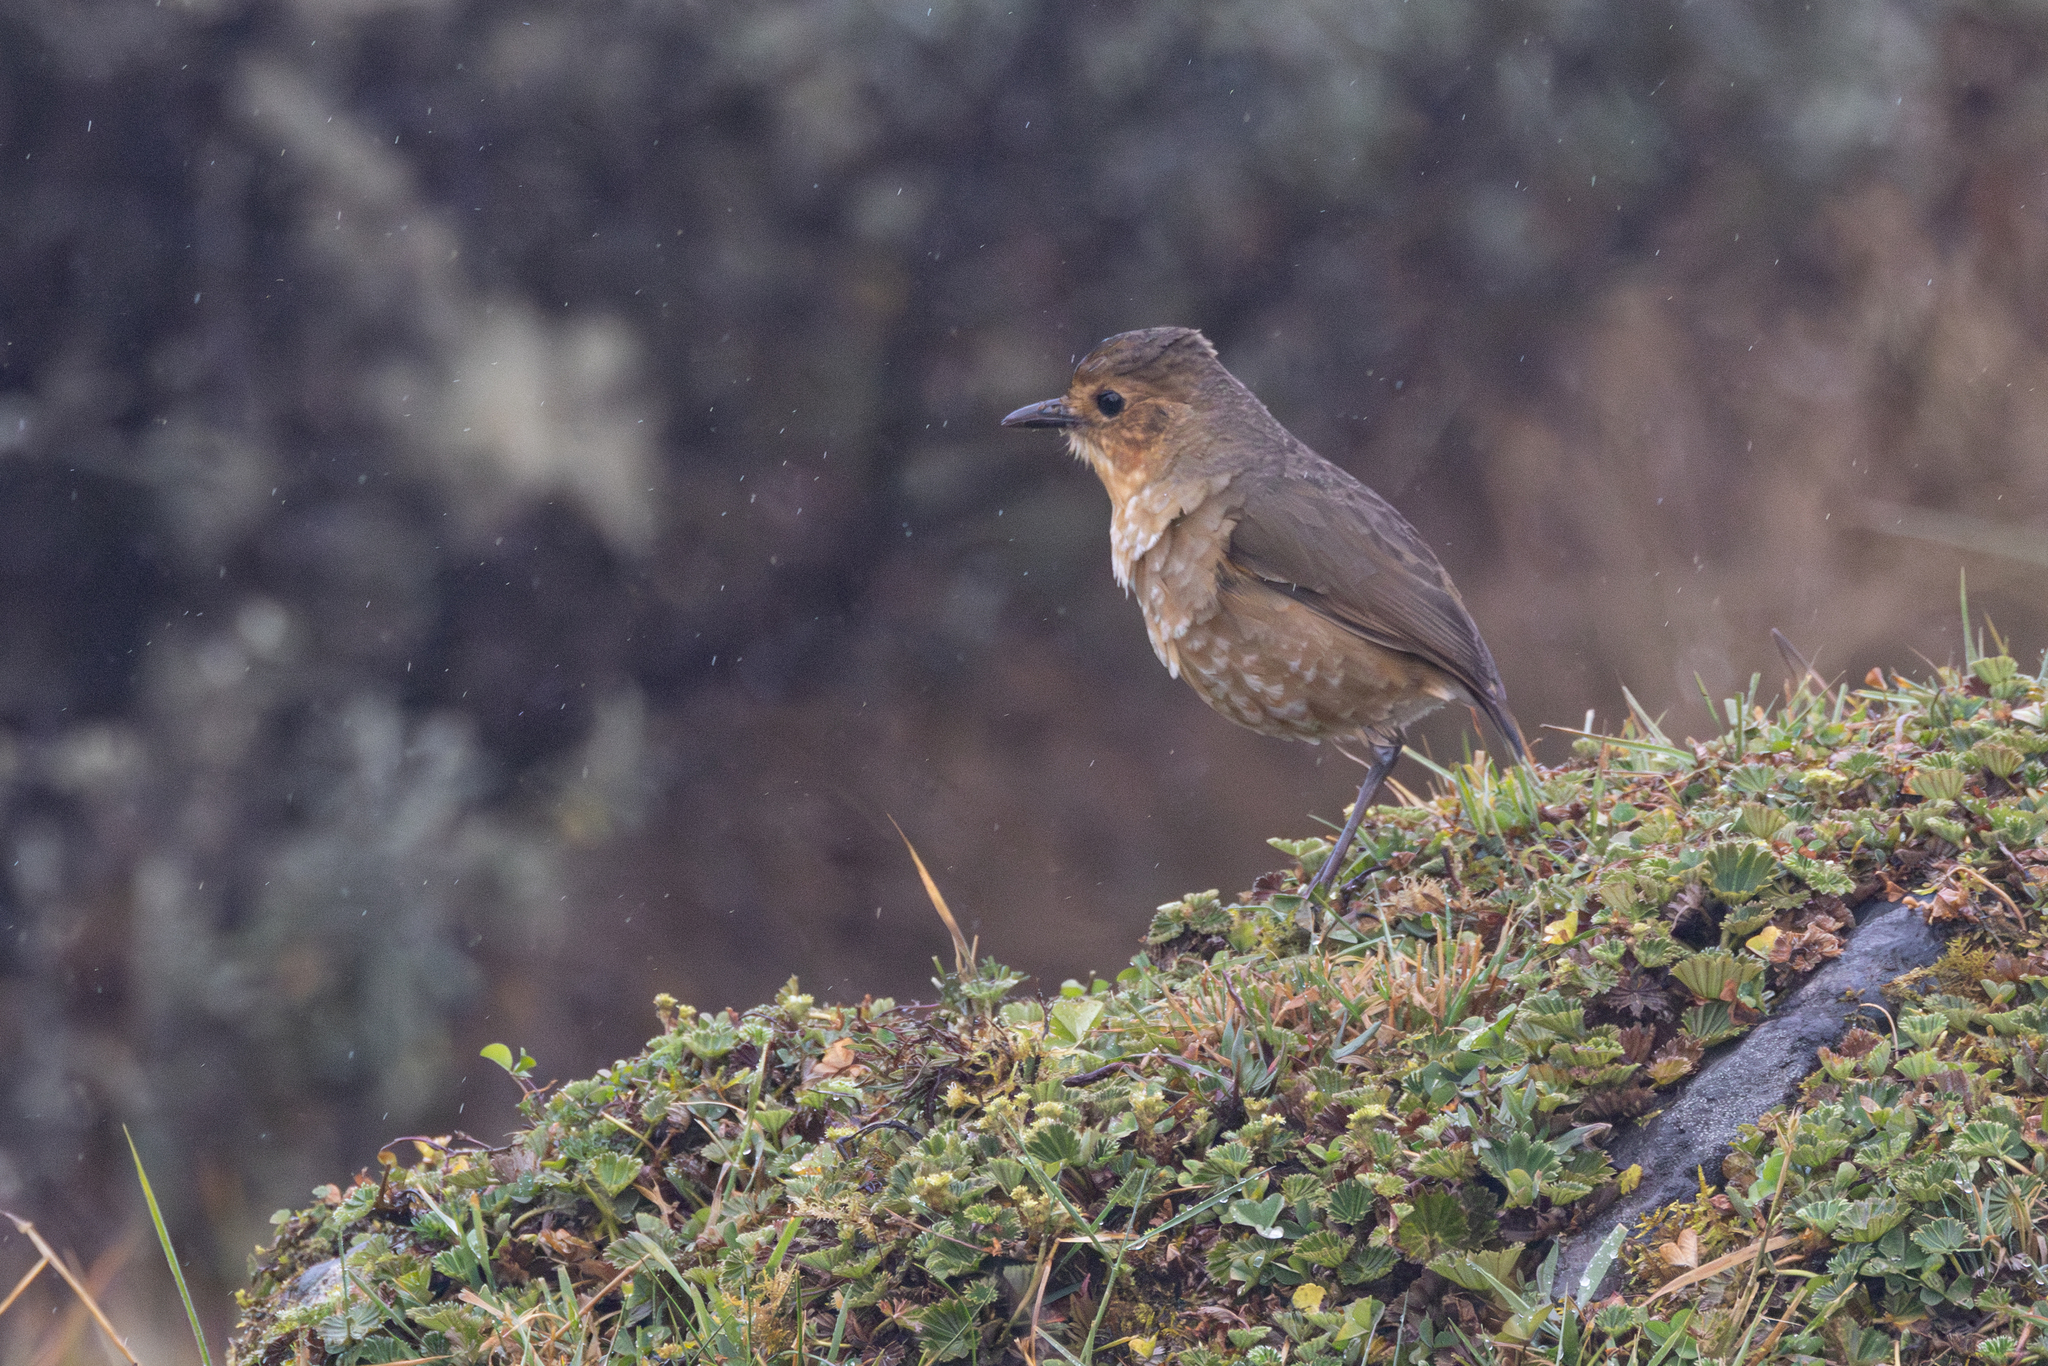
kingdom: Animalia
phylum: Chordata
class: Aves
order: Passeriformes
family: Grallariidae
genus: Grallaria
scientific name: Grallaria alticola
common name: Boyaca antpitta
